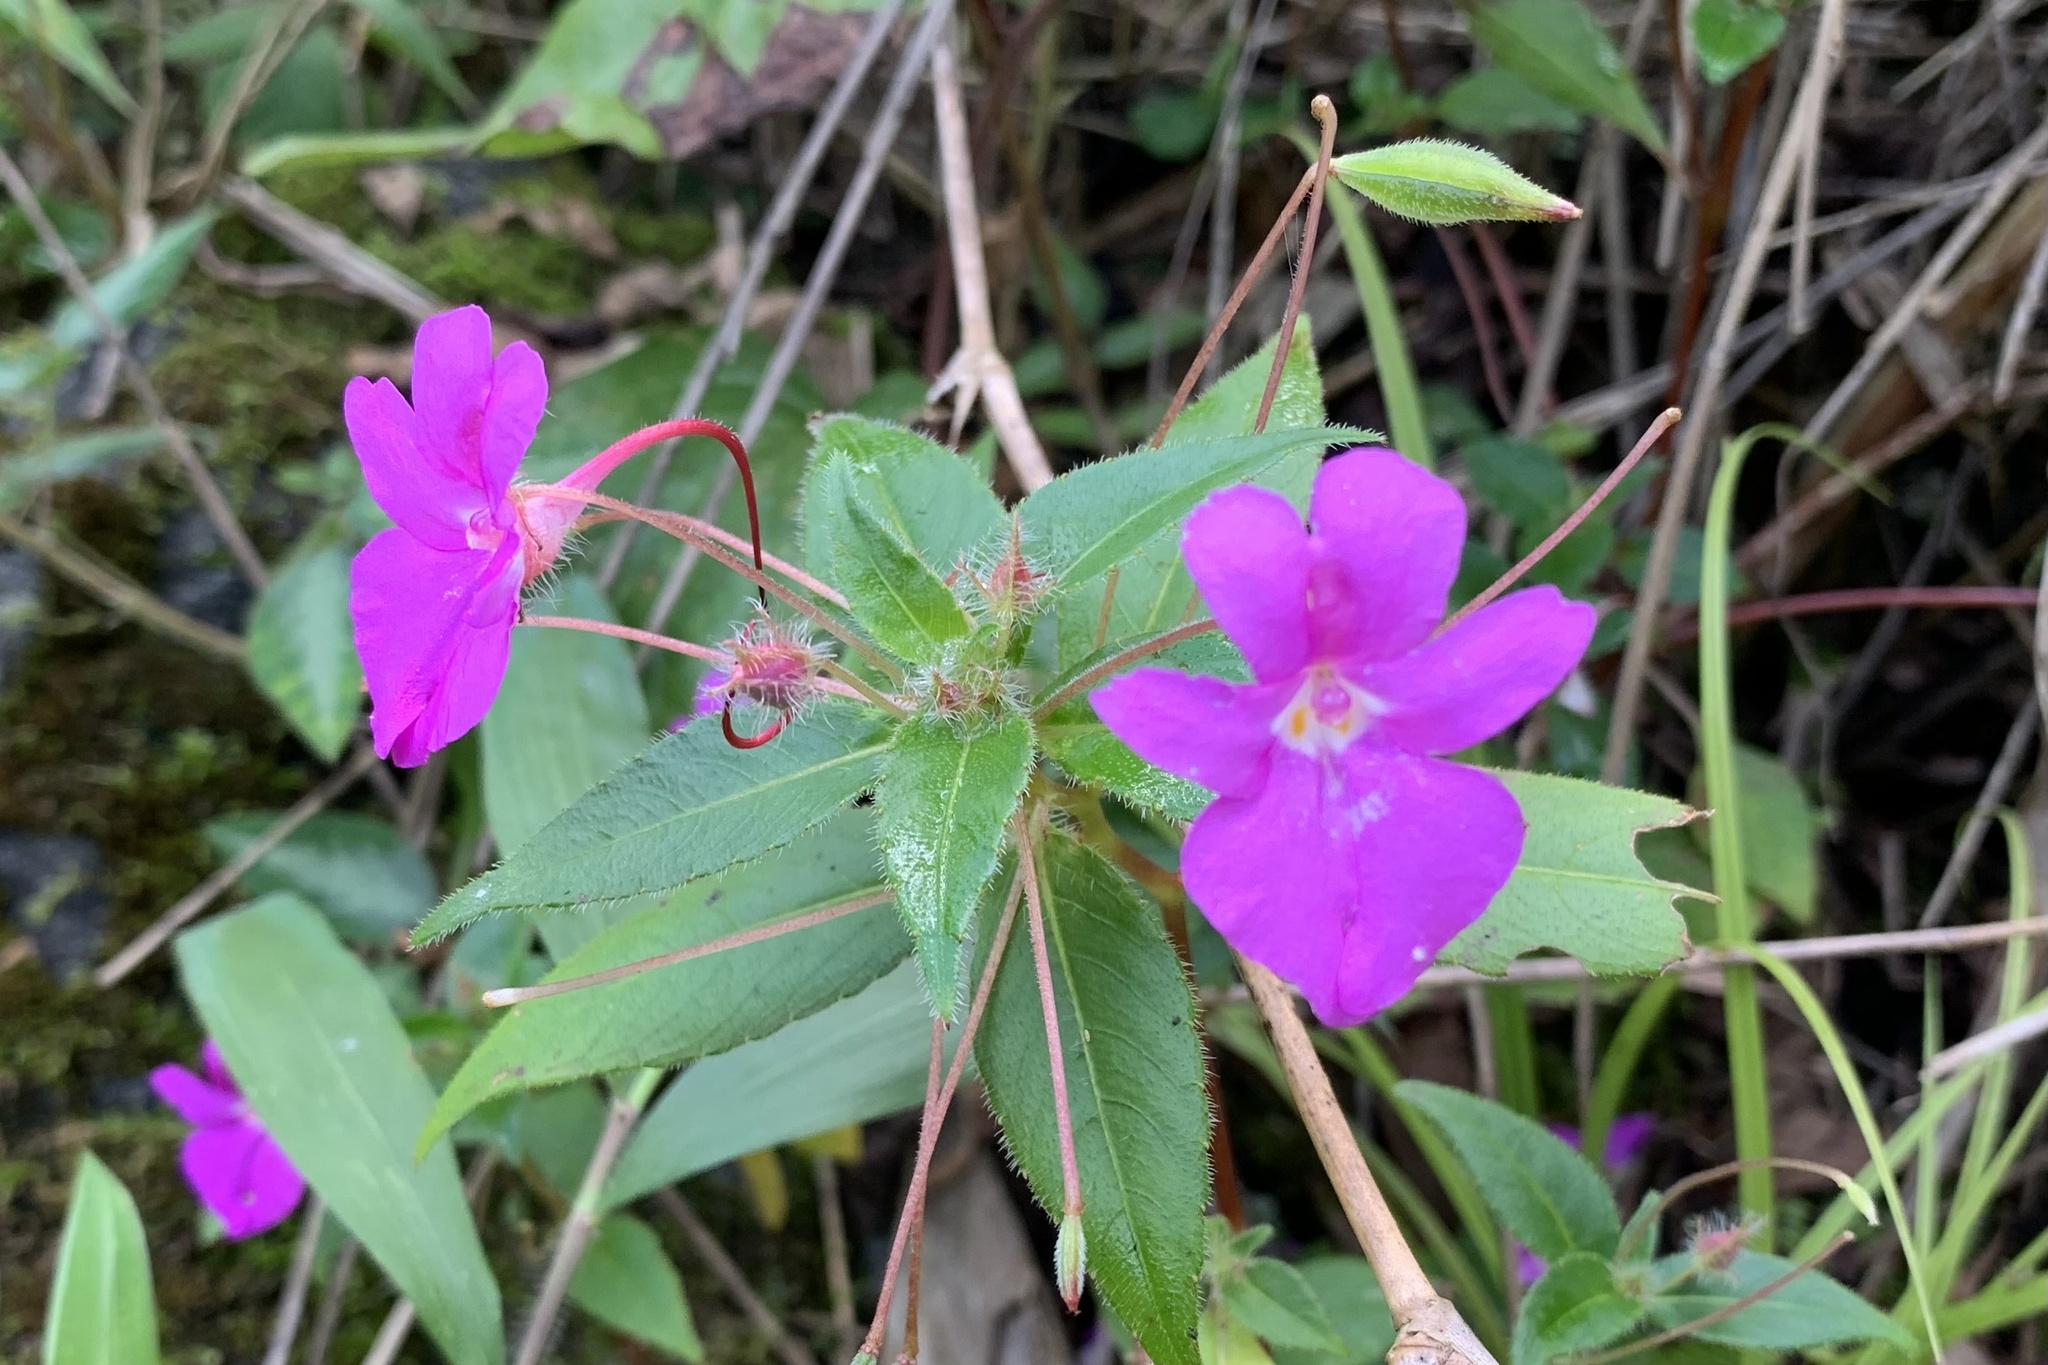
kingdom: Plantae
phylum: Tracheophyta
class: Magnoliopsida
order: Ericales
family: Balsaminaceae
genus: Impatiens
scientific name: Impatiens santisukii
